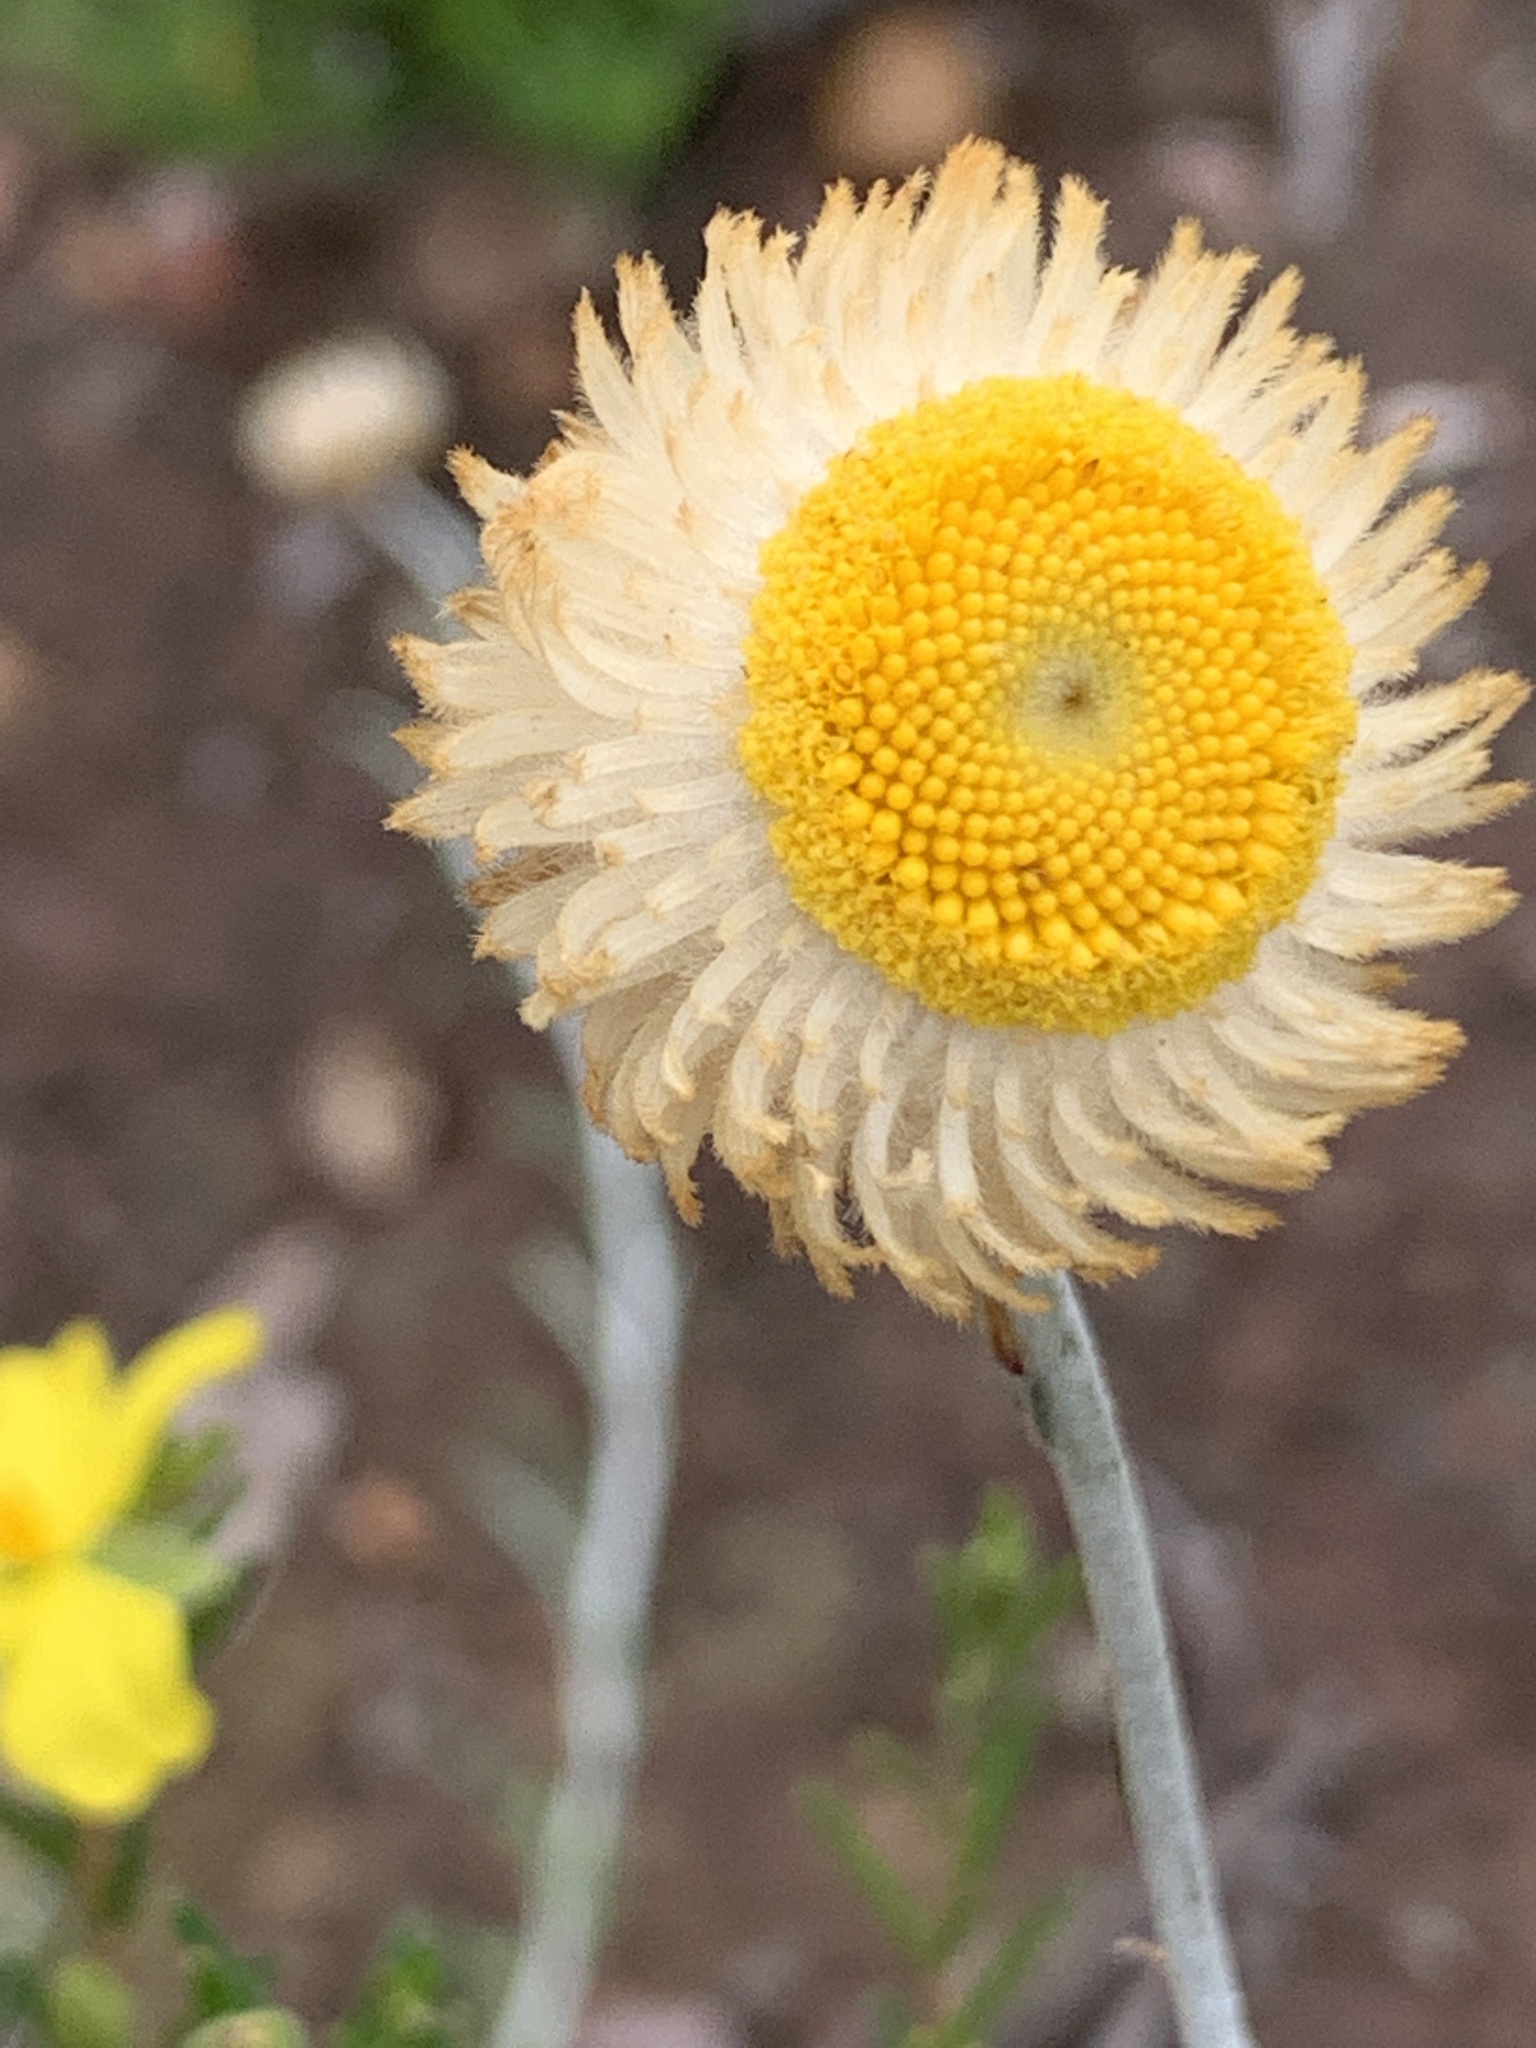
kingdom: Plantae
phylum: Tracheophyta
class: Magnoliopsida
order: Asterales
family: Asteraceae
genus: Chrysocephalum
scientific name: Chrysocephalum baxteri
